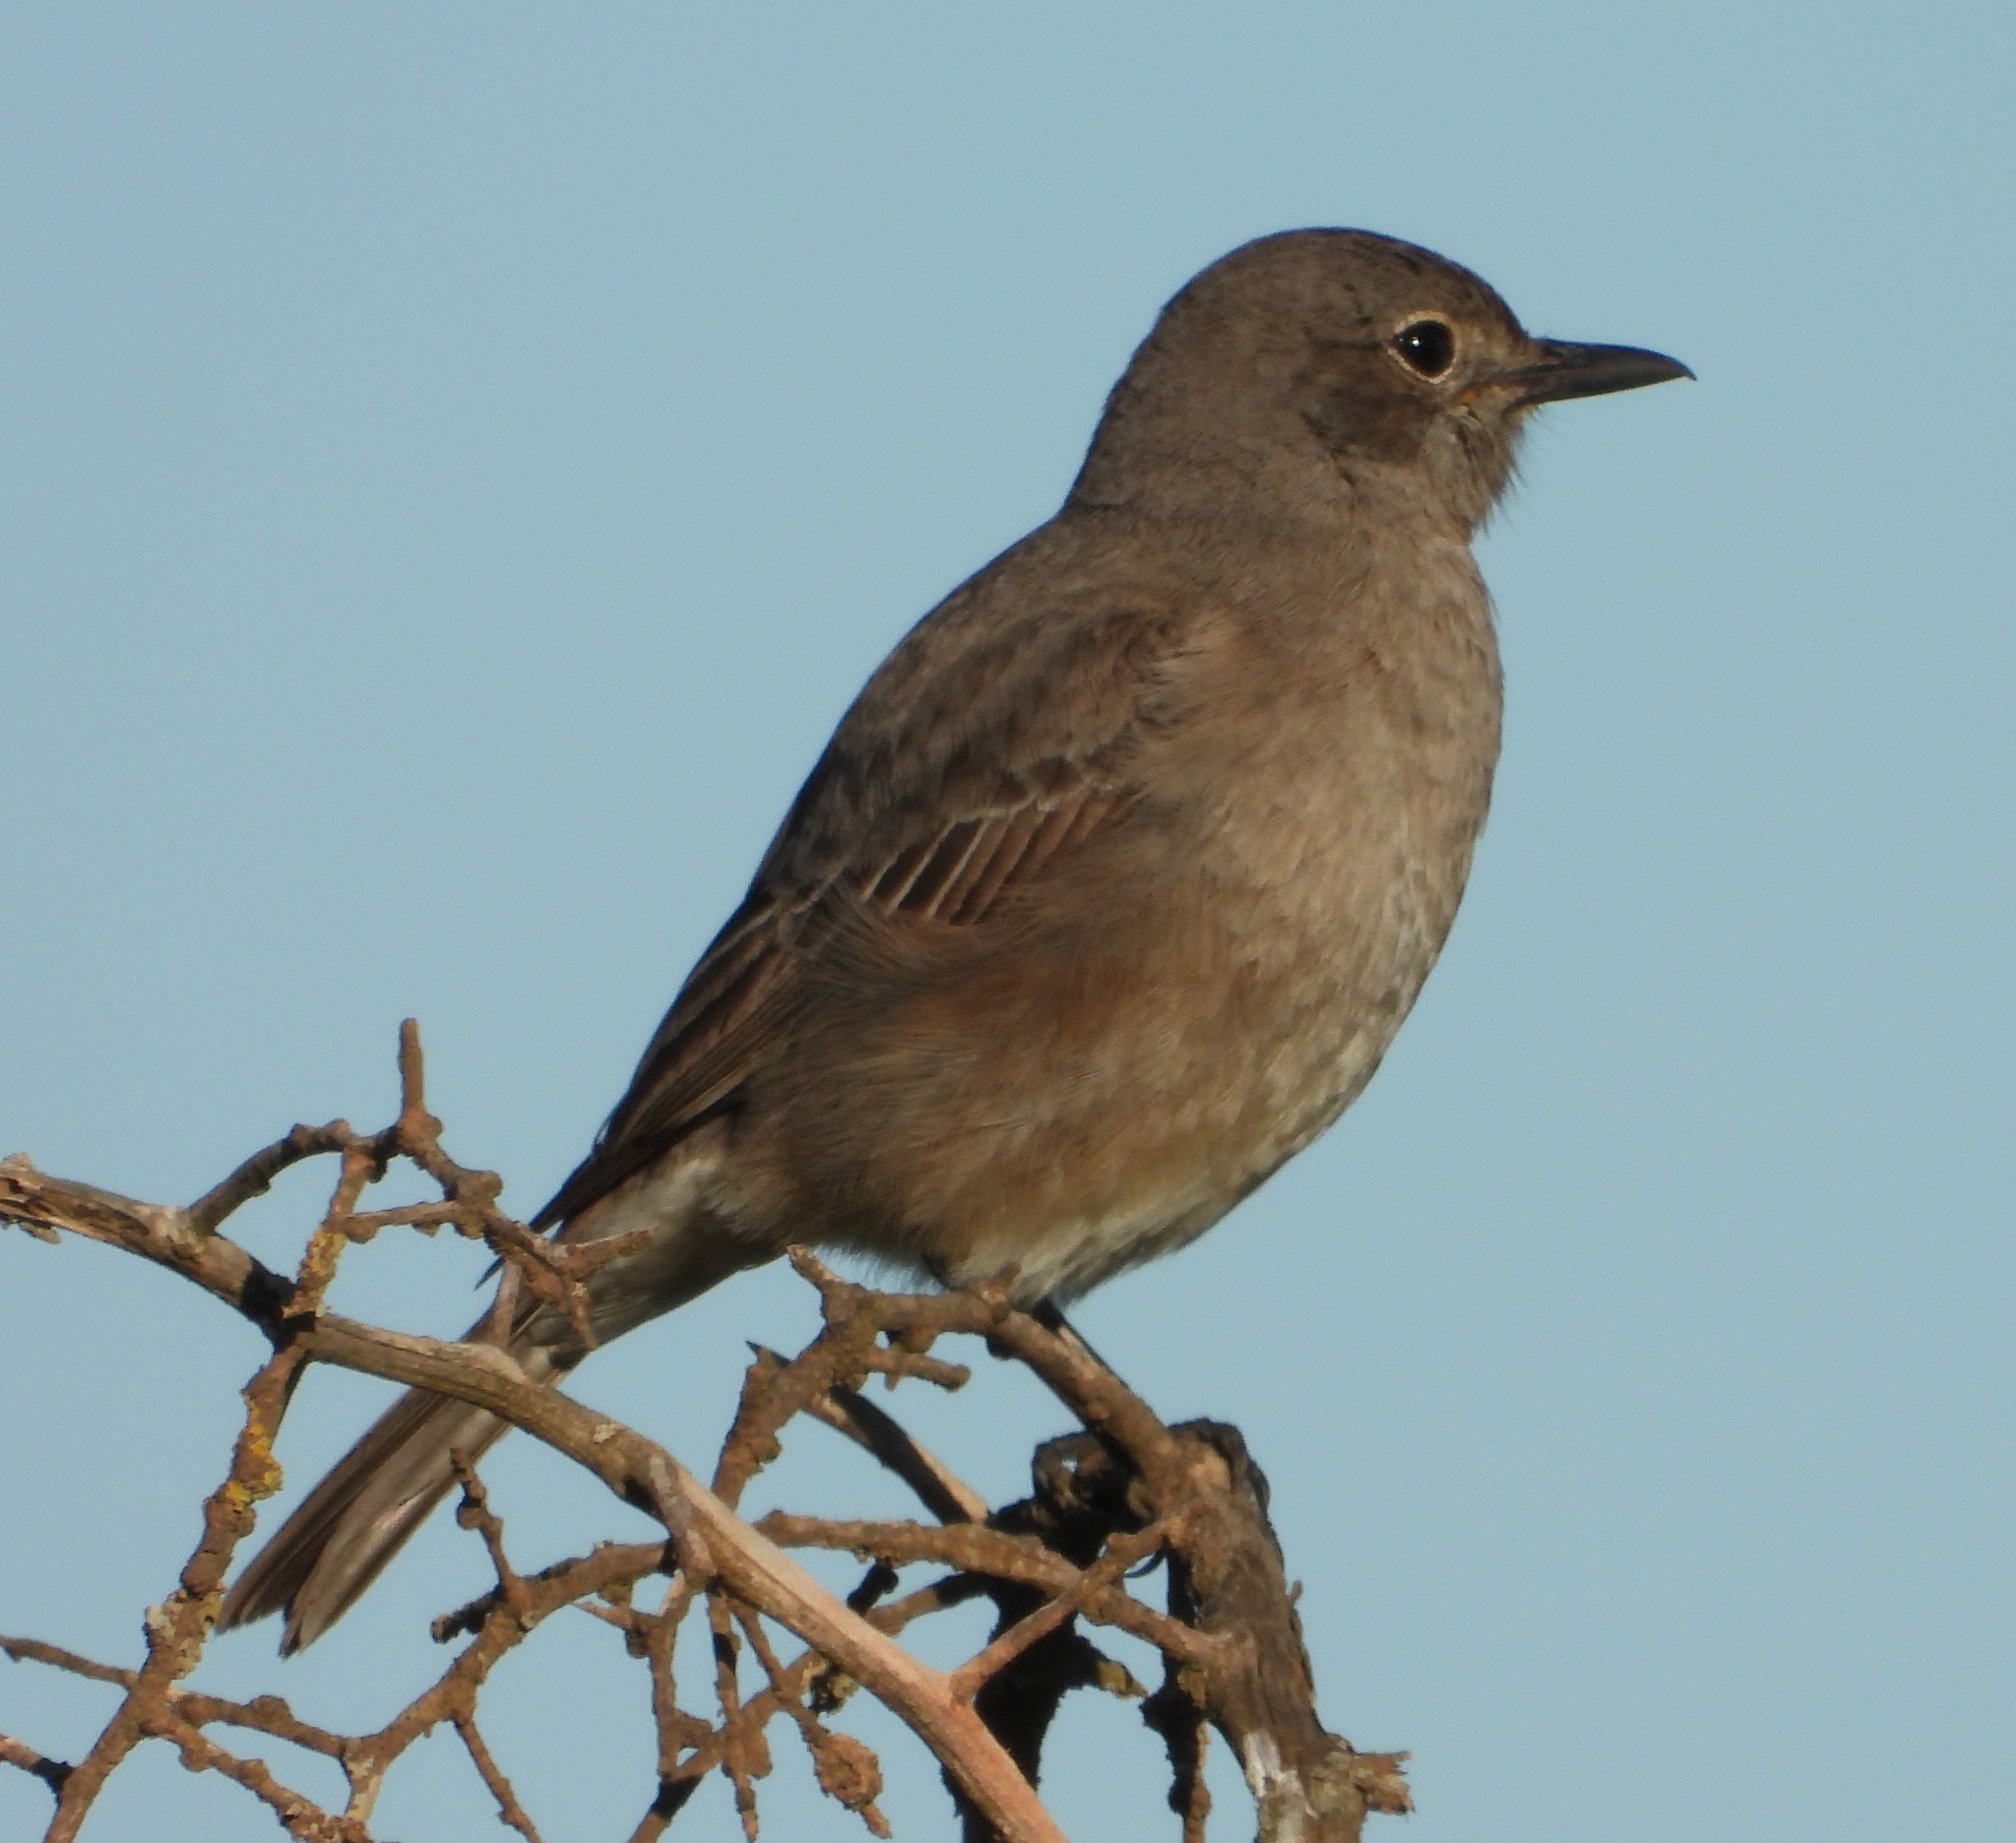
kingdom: Animalia
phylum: Chordata
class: Aves
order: Passeriformes
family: Muscicapidae
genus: Bradornis
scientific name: Bradornis infuscatus
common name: Chat flycatcher
